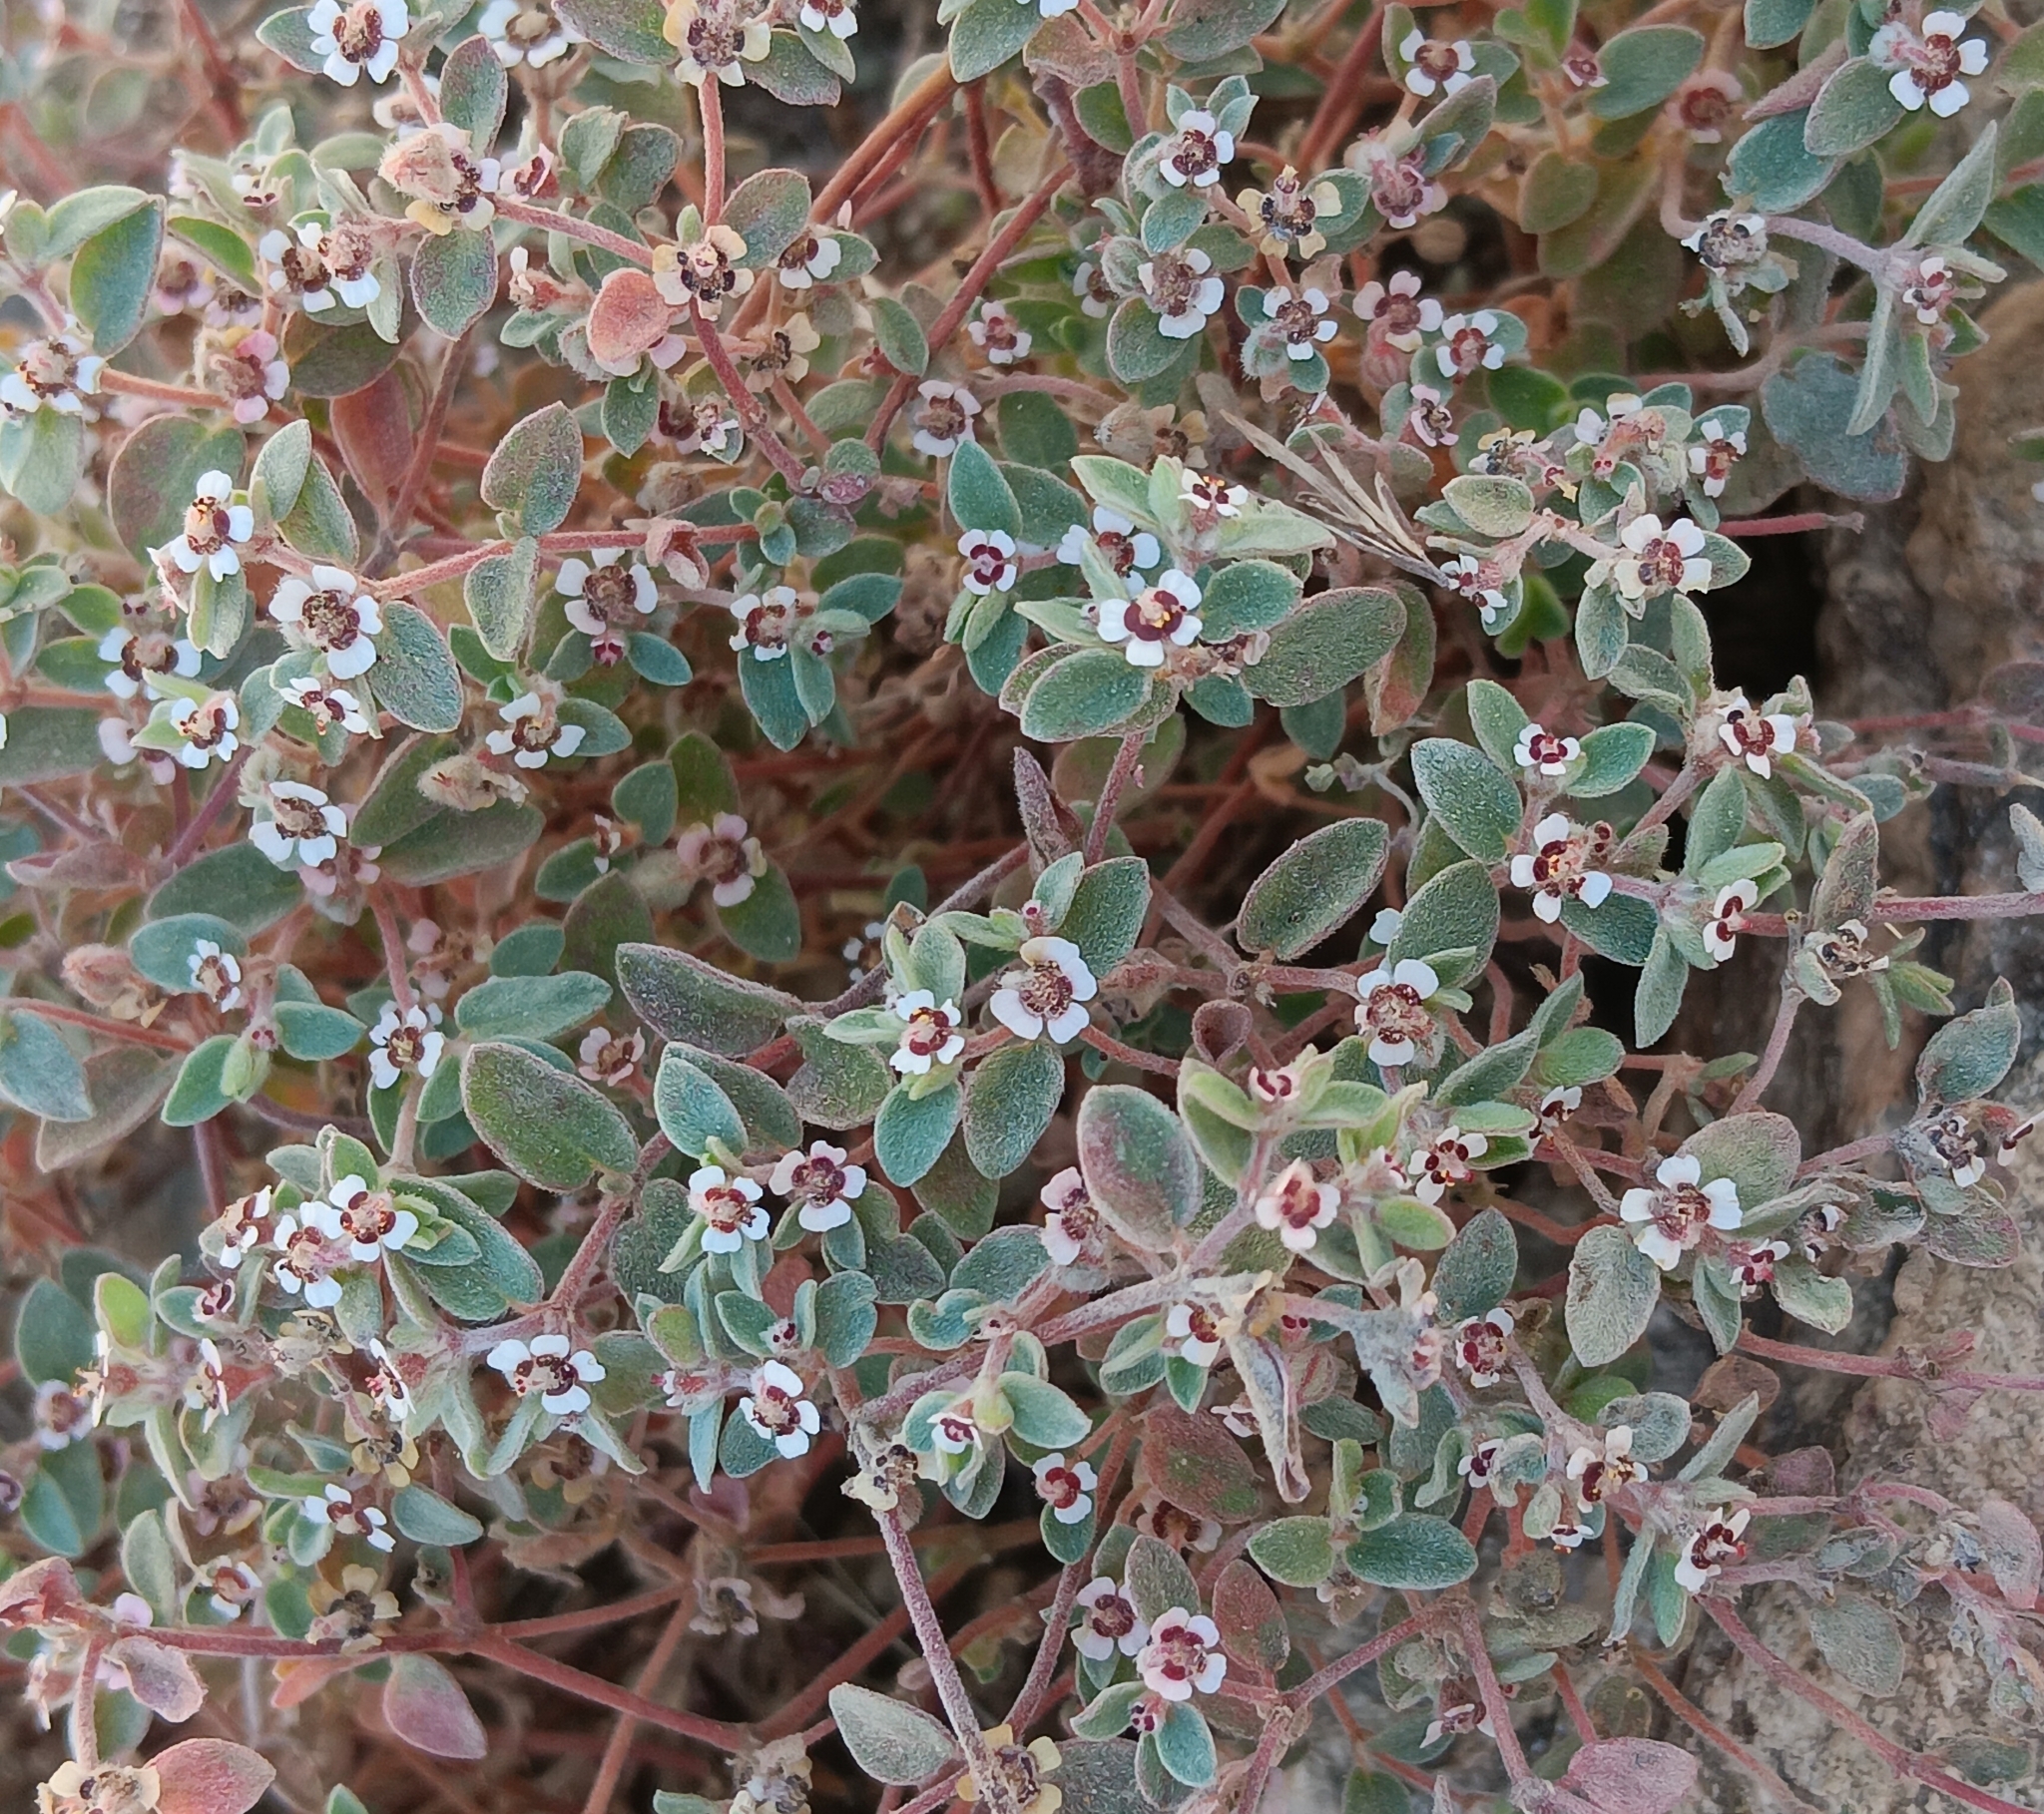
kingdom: Plantae
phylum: Tracheophyta
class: Magnoliopsida
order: Malpighiales
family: Euphorbiaceae
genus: Euphorbia
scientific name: Euphorbia melanadenia
